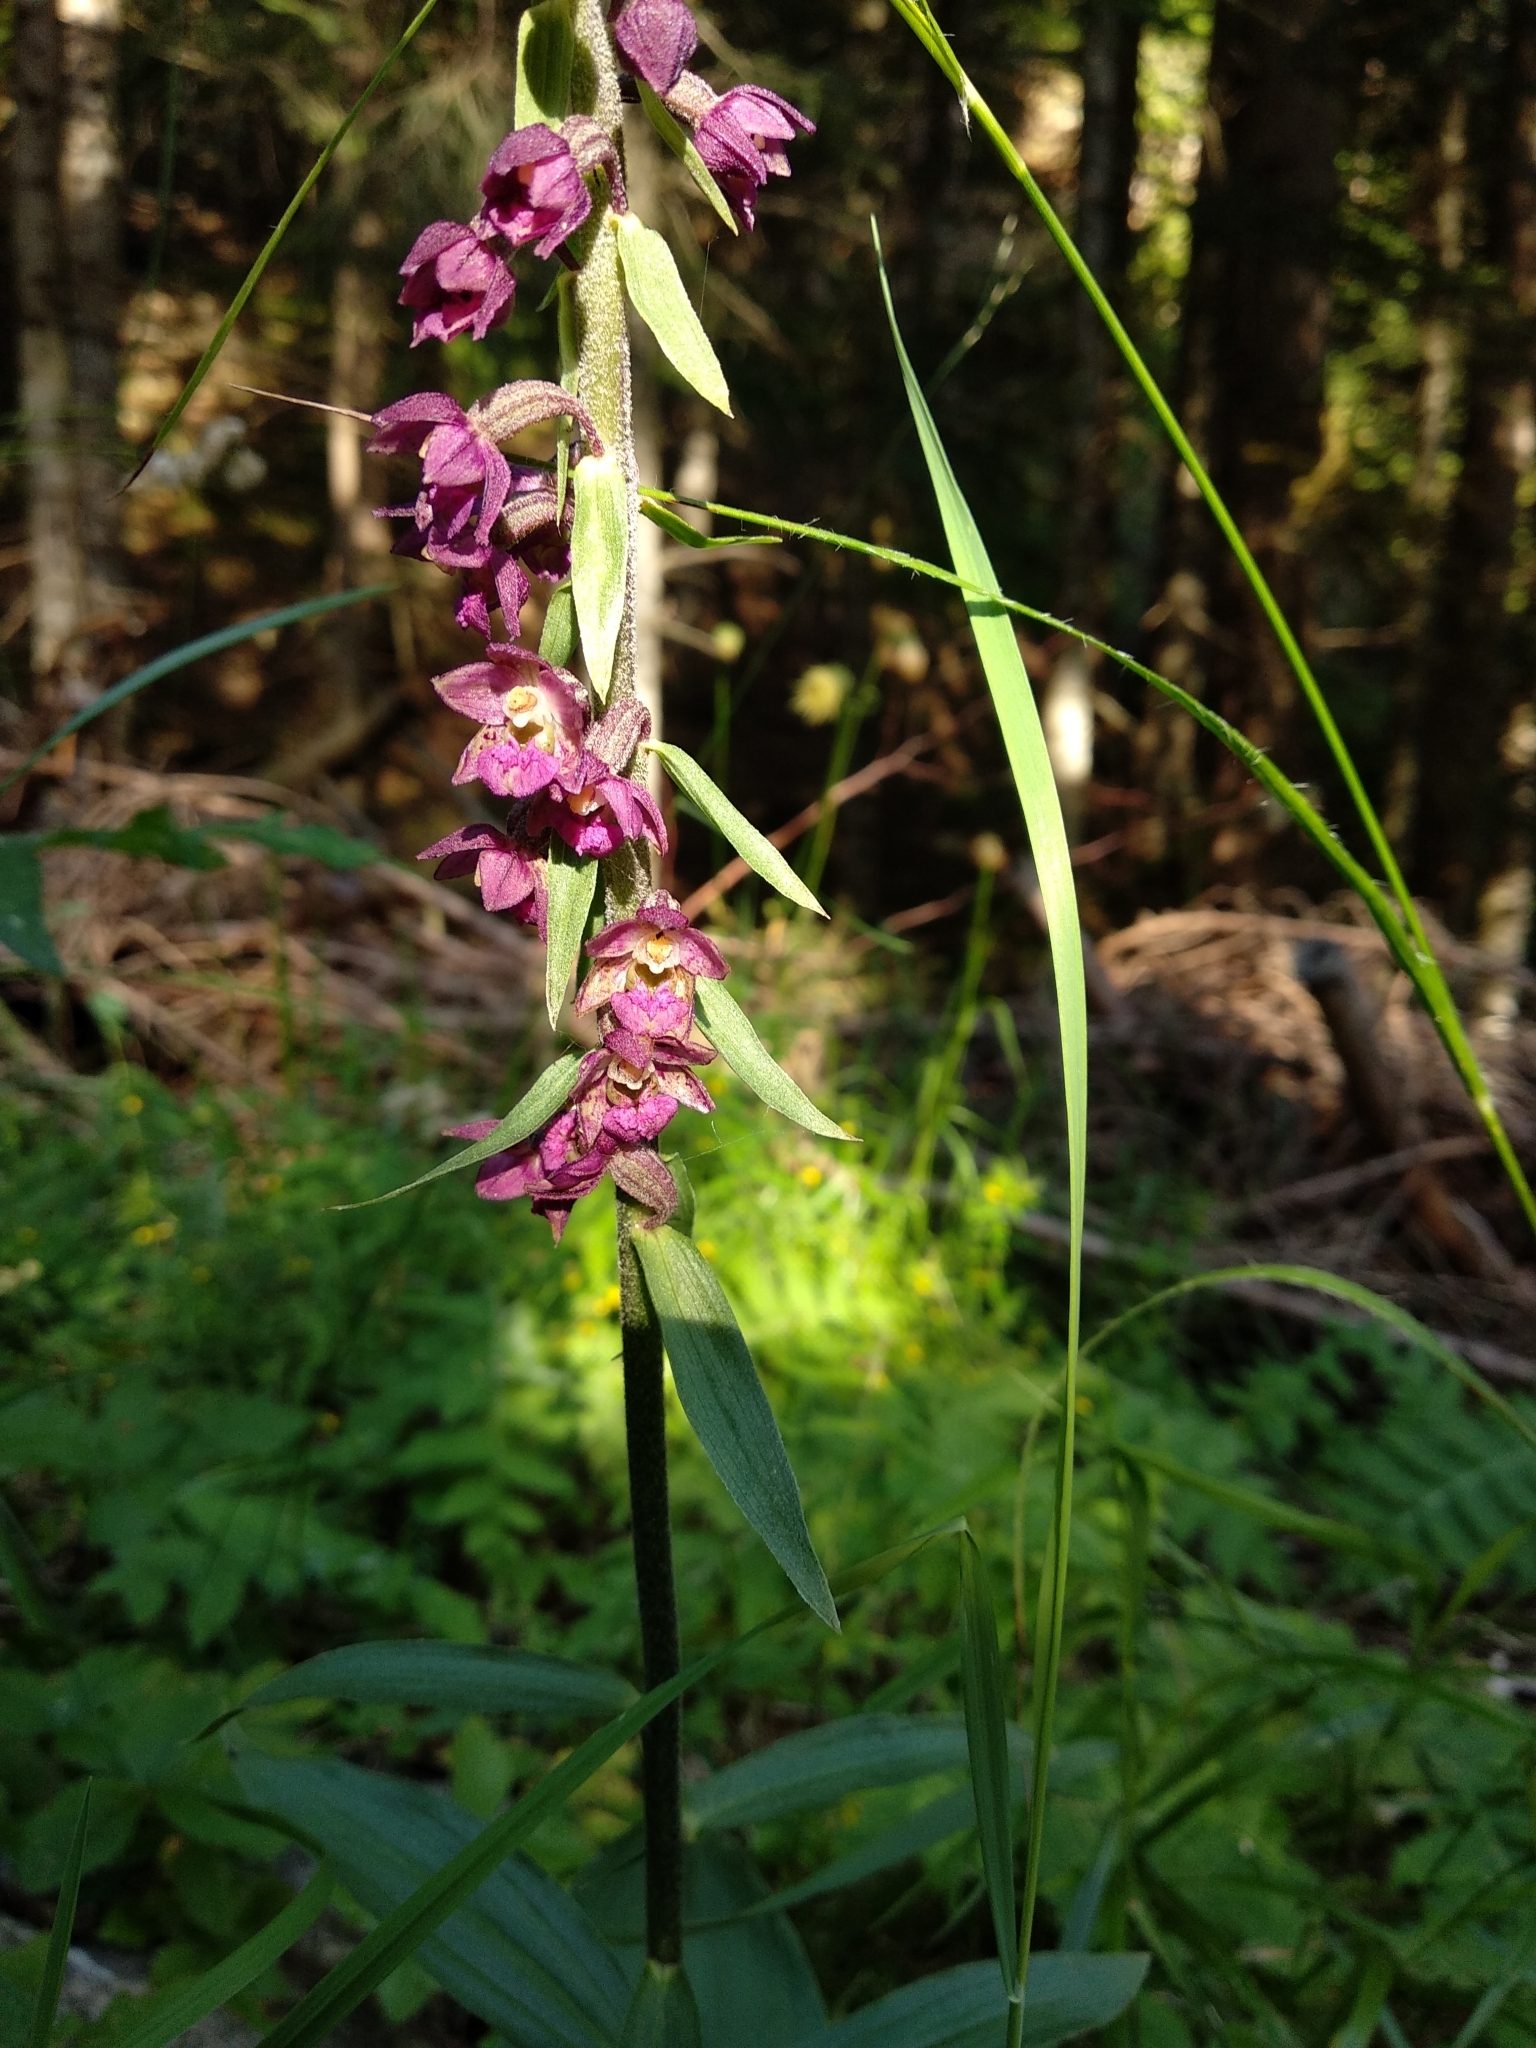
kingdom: Plantae
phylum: Tracheophyta
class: Liliopsida
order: Asparagales
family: Orchidaceae
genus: Epipactis
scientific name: Epipactis atrorubens
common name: Dark-red helleborine
